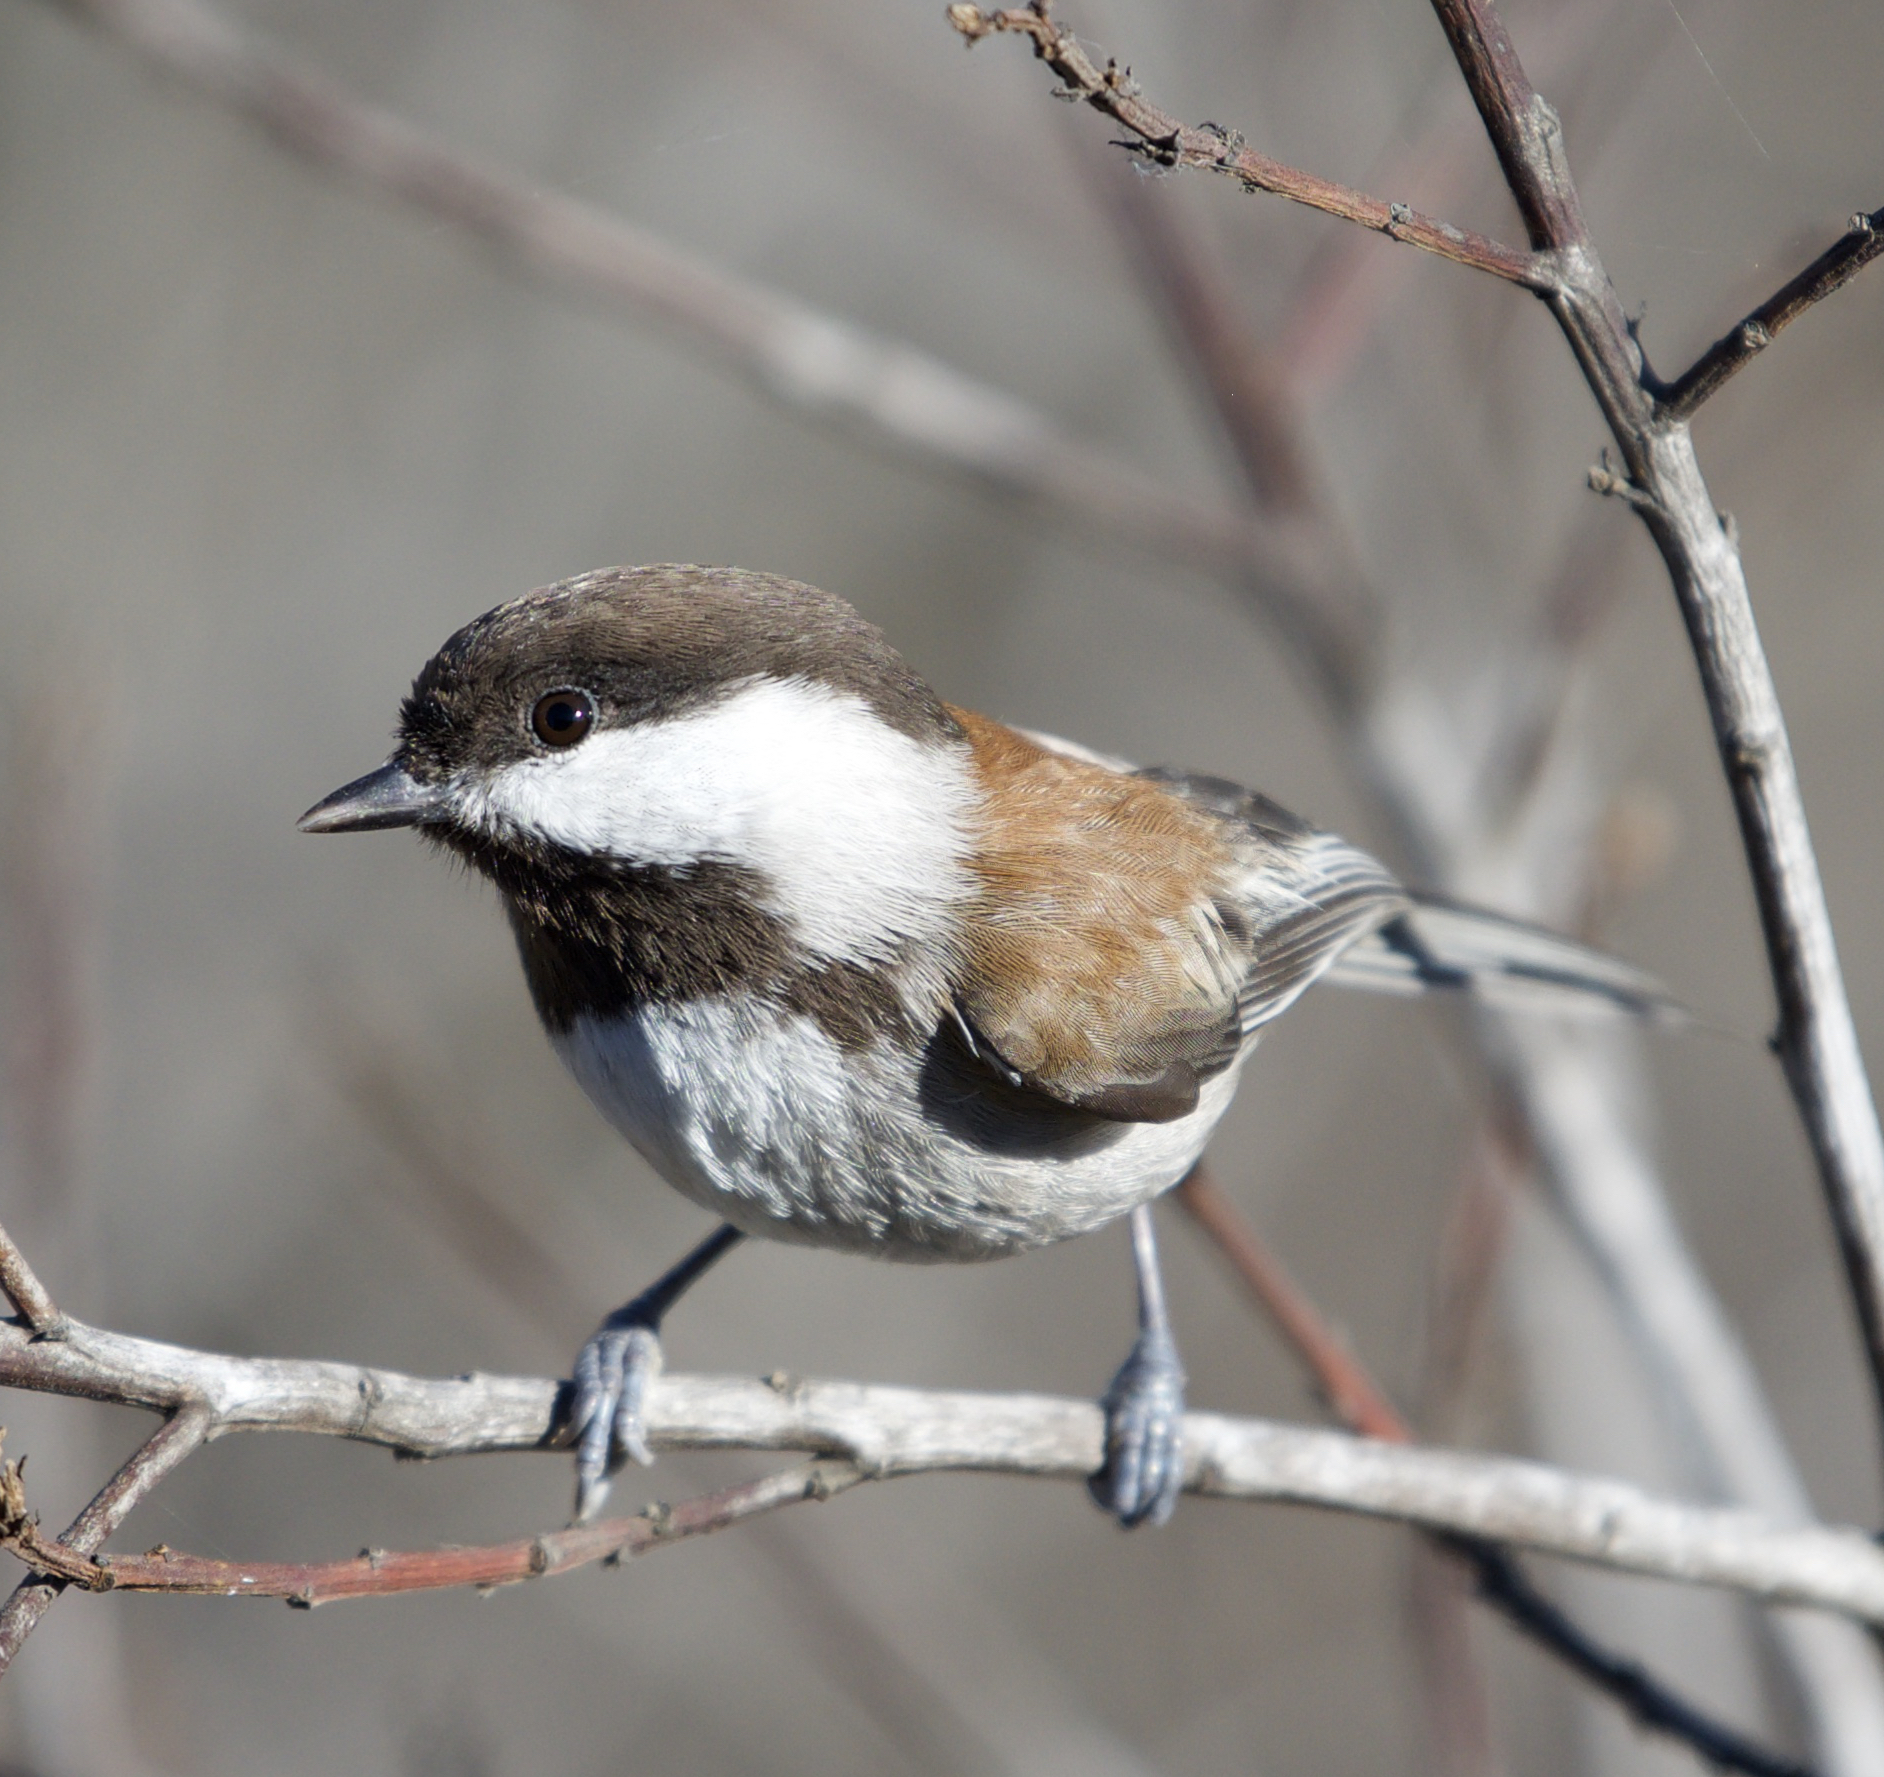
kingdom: Animalia
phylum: Chordata
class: Aves
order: Passeriformes
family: Paridae
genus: Poecile
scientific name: Poecile rufescens
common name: Chestnut-backed chickadee
